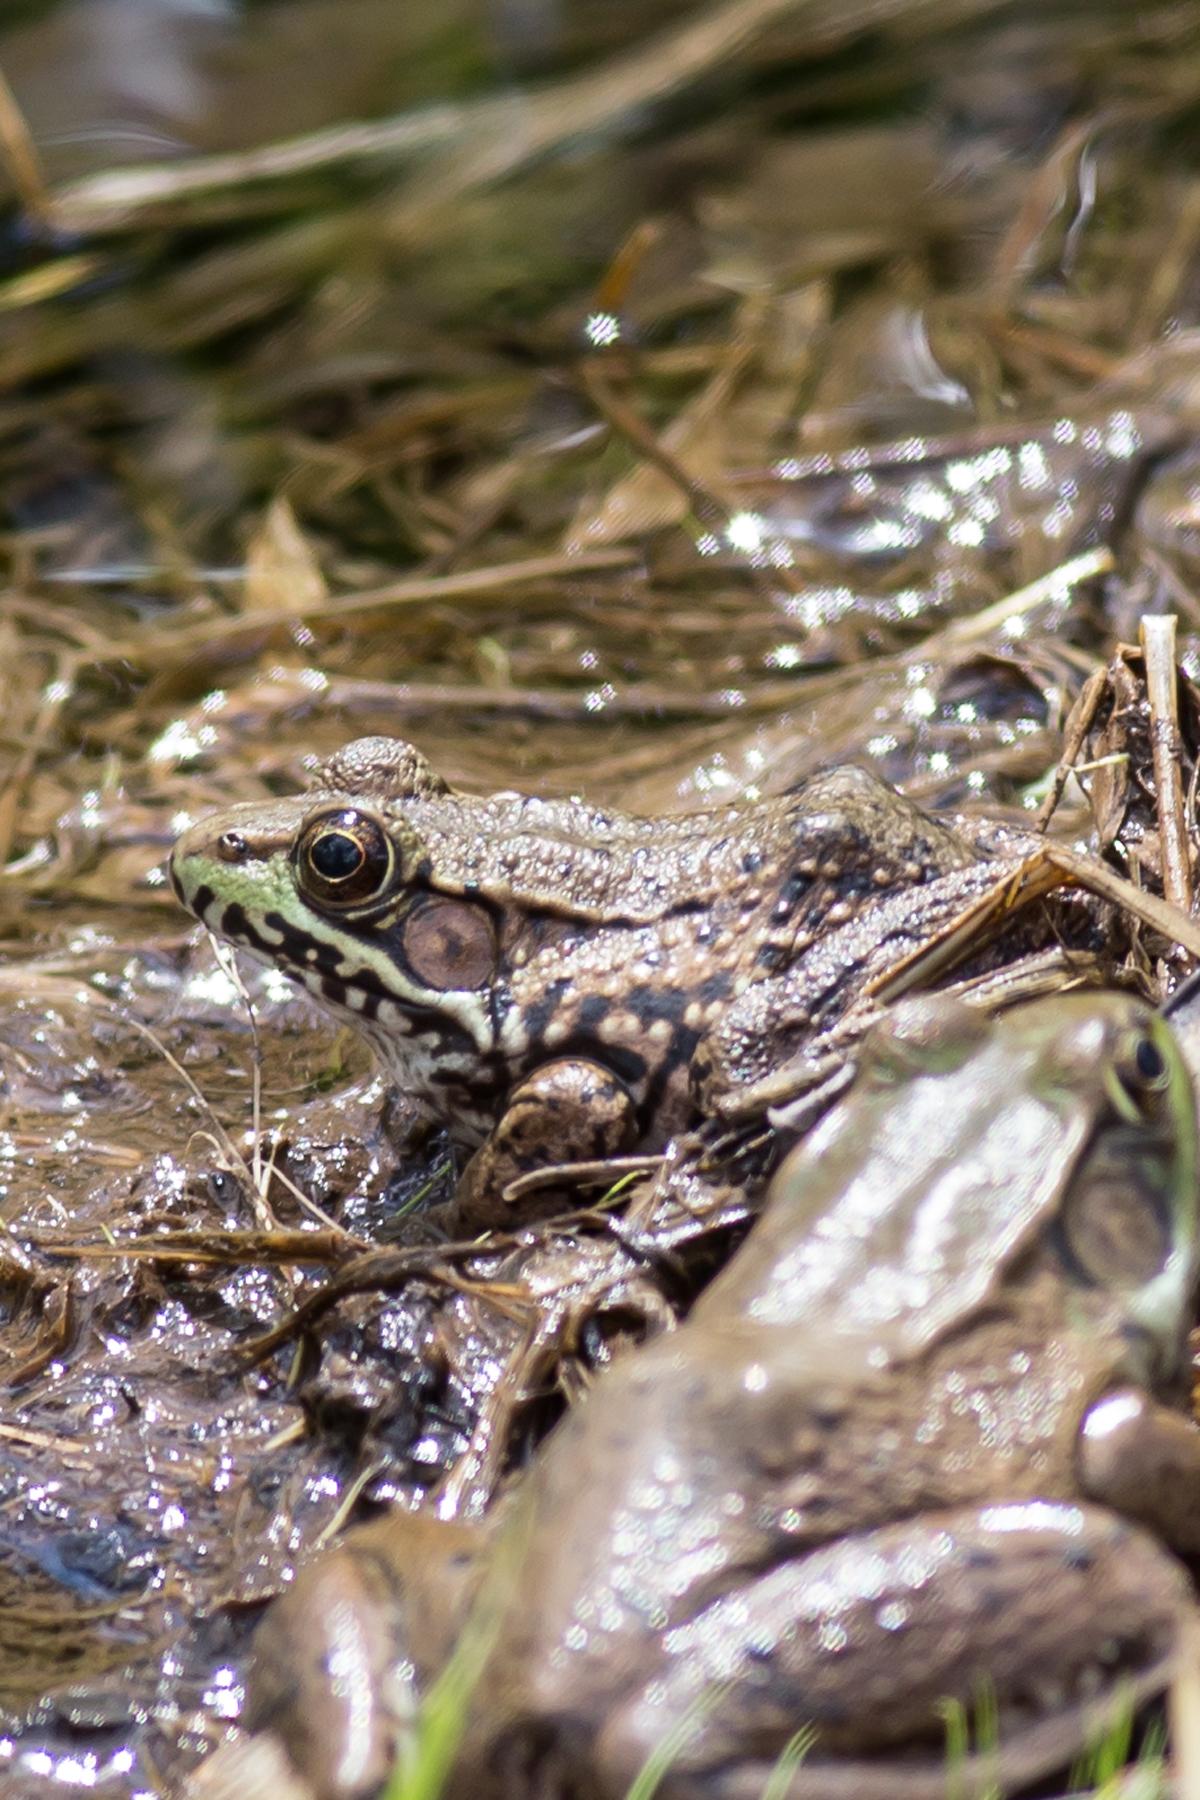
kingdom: Animalia
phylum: Chordata
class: Amphibia
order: Anura
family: Ranidae
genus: Lithobates
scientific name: Lithobates clamitans
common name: Green frog
